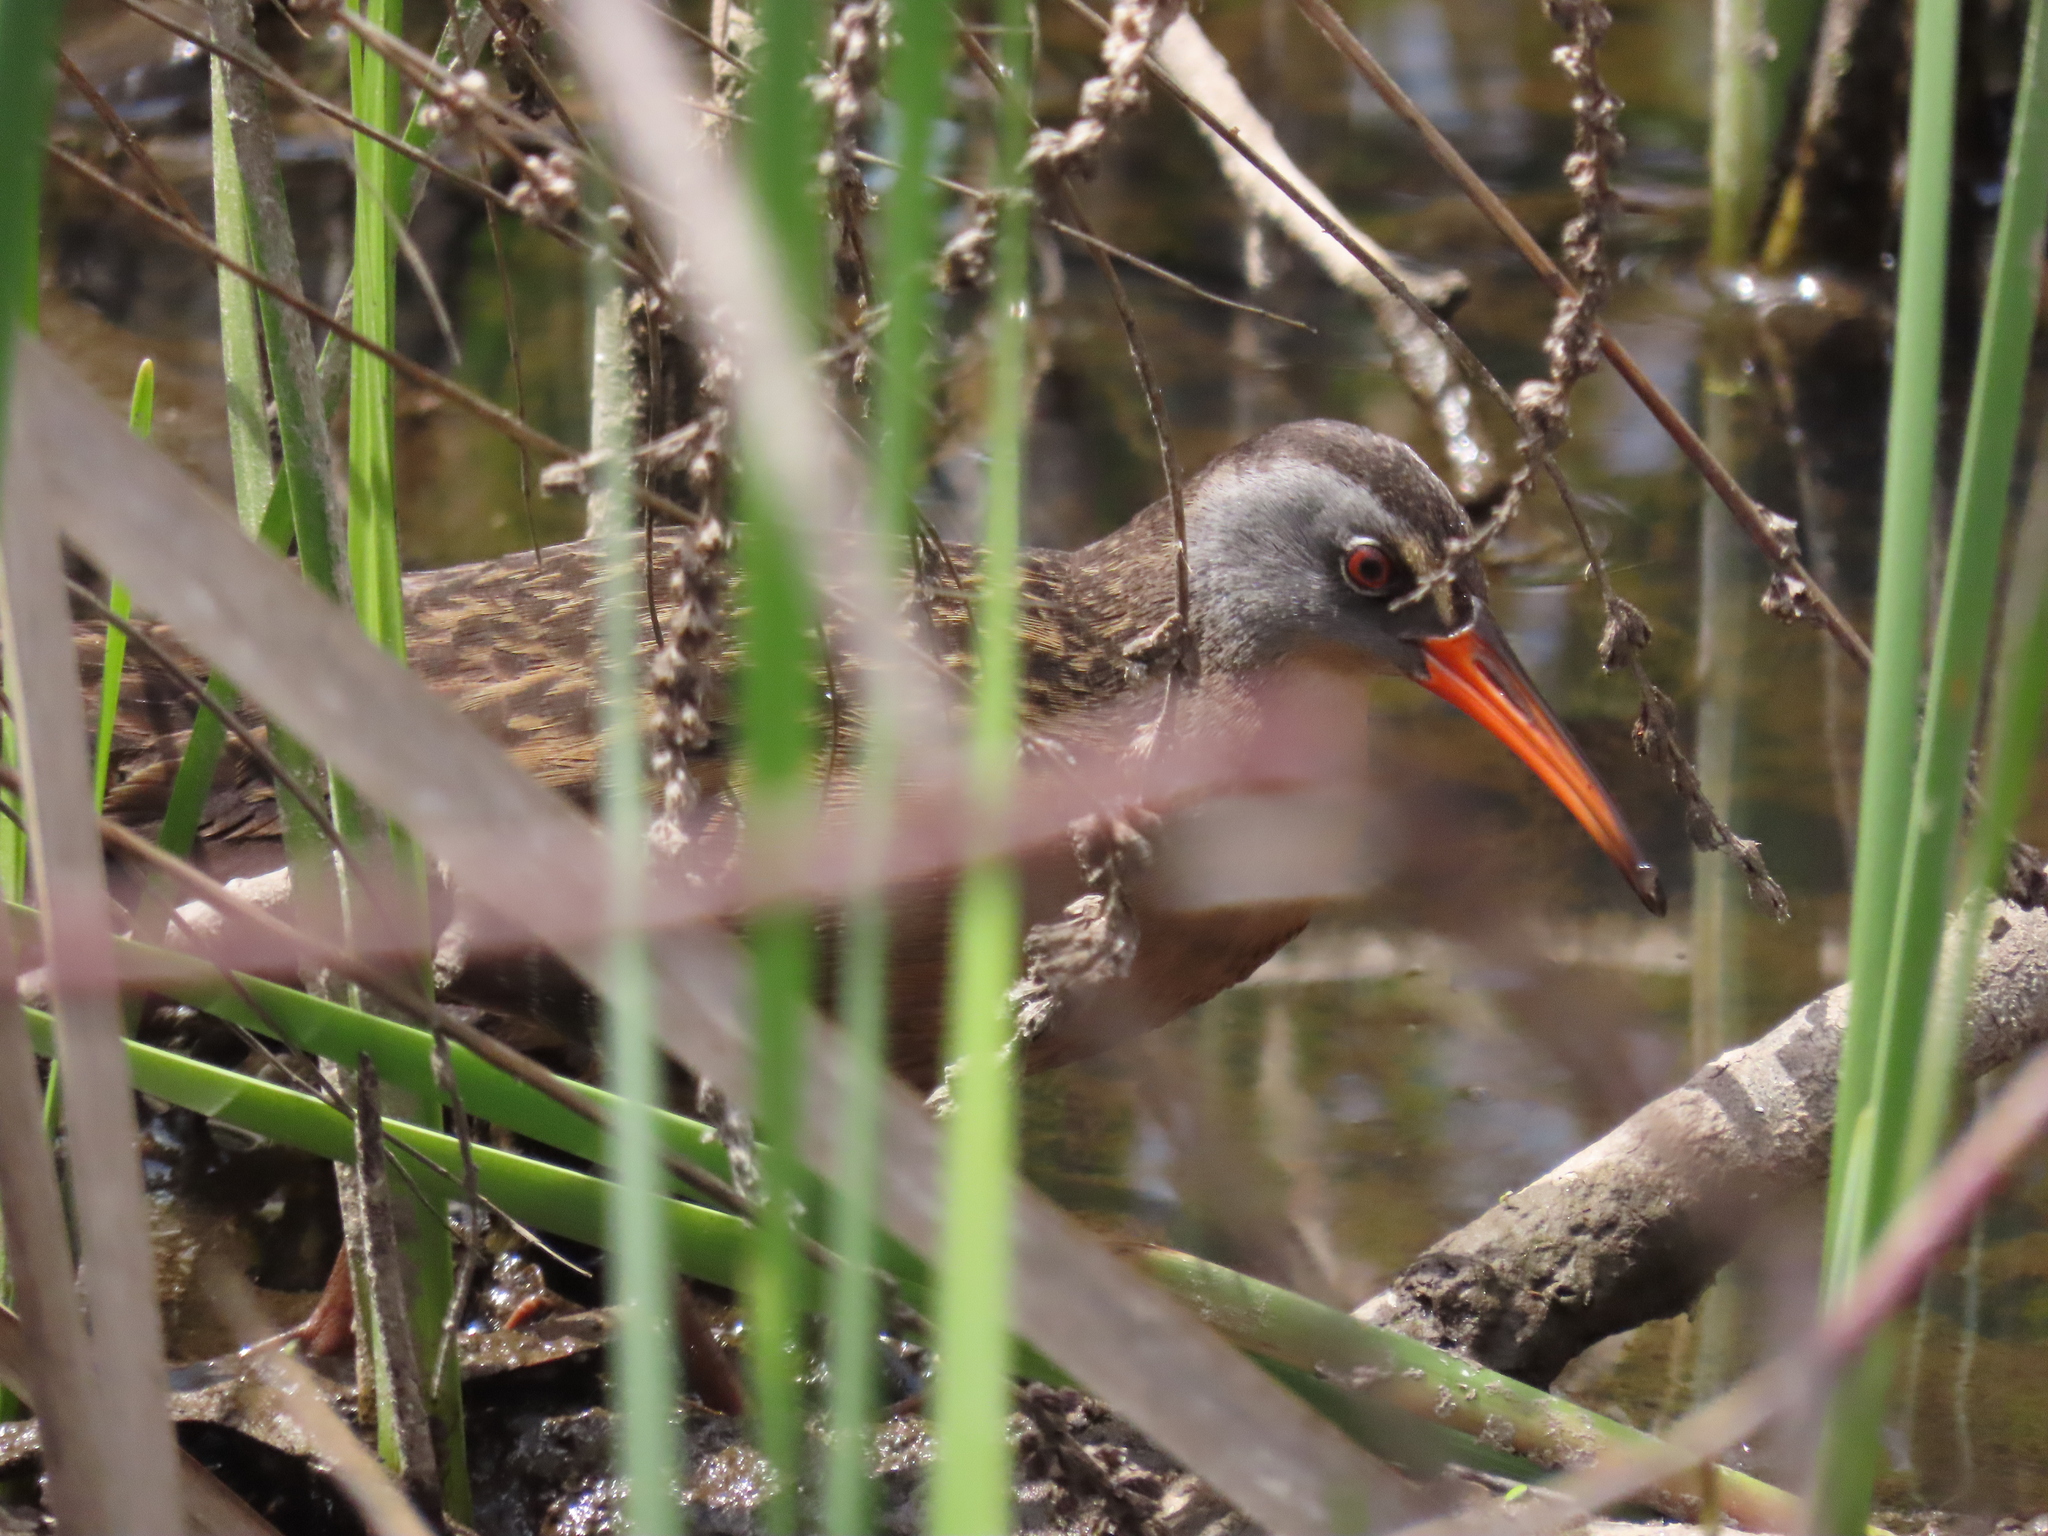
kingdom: Animalia
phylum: Chordata
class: Aves
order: Gruiformes
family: Rallidae
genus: Rallus
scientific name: Rallus limicola
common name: Virginia rail
